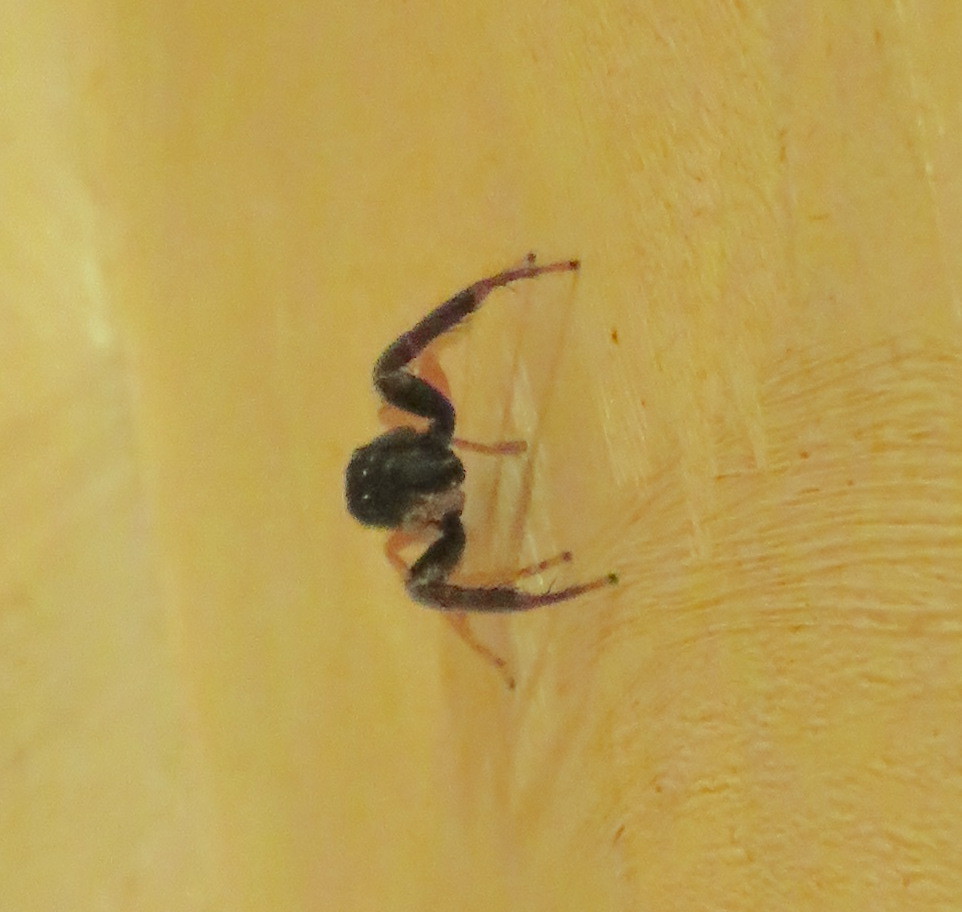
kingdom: Animalia
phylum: Arthropoda
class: Arachnida
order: Araneae
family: Salticidae
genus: Trite
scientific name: Trite planiceps
